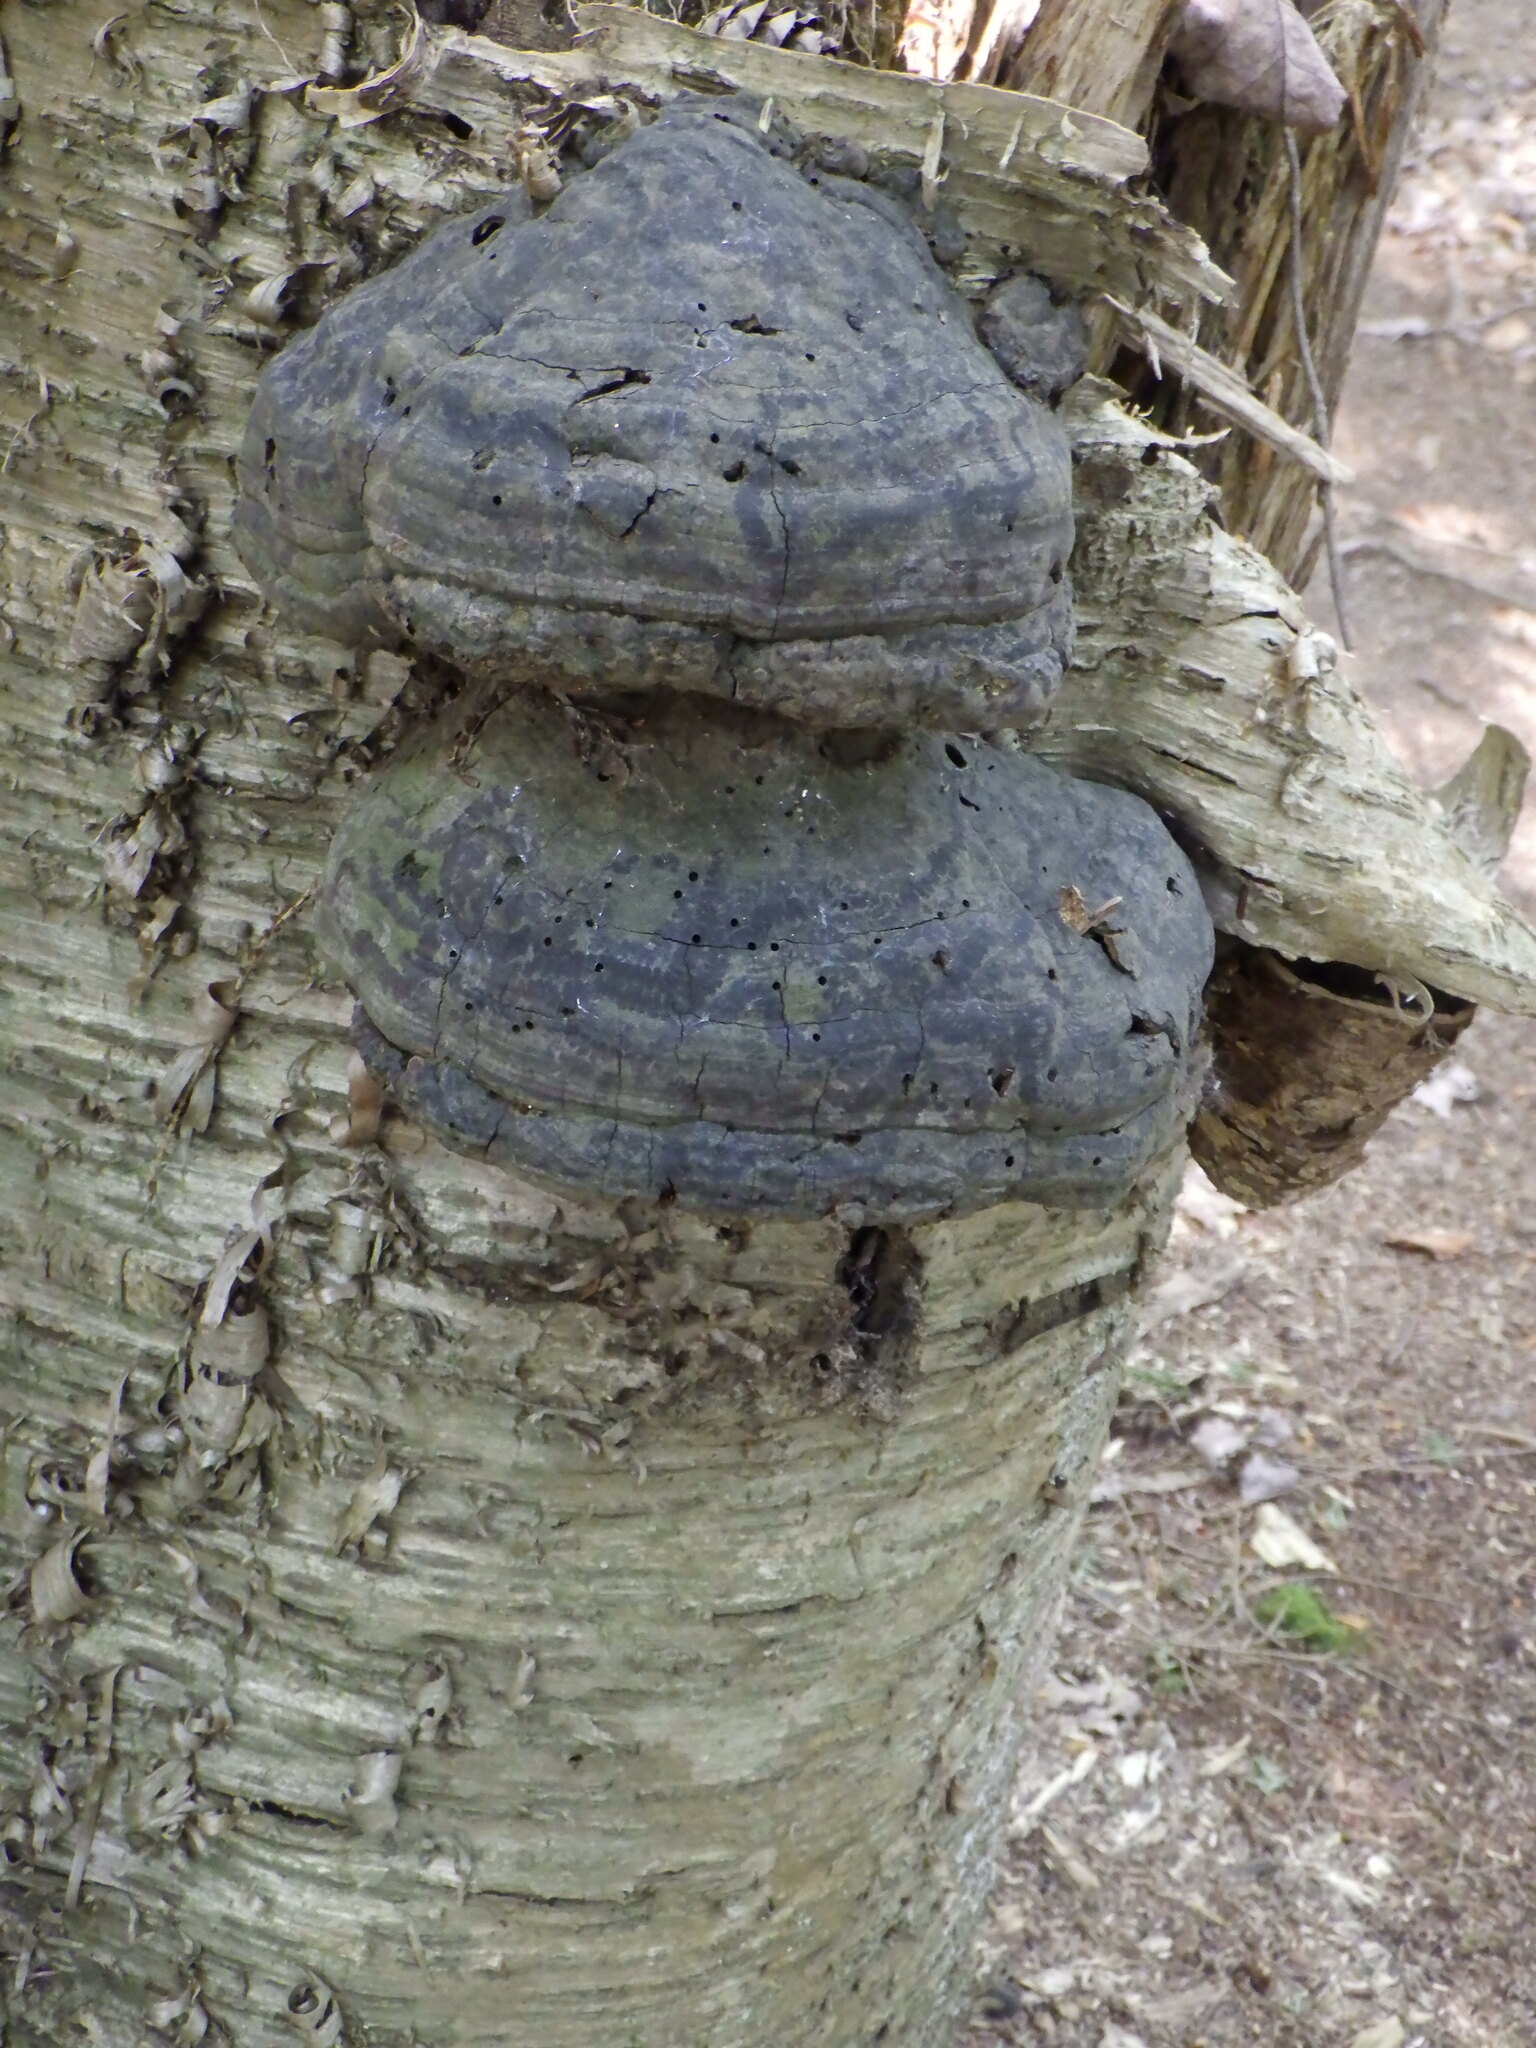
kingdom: Fungi
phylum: Basidiomycota
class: Agaricomycetes
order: Polyporales
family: Polyporaceae
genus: Fomes
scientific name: Fomes fomentarius
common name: Hoof fungus
